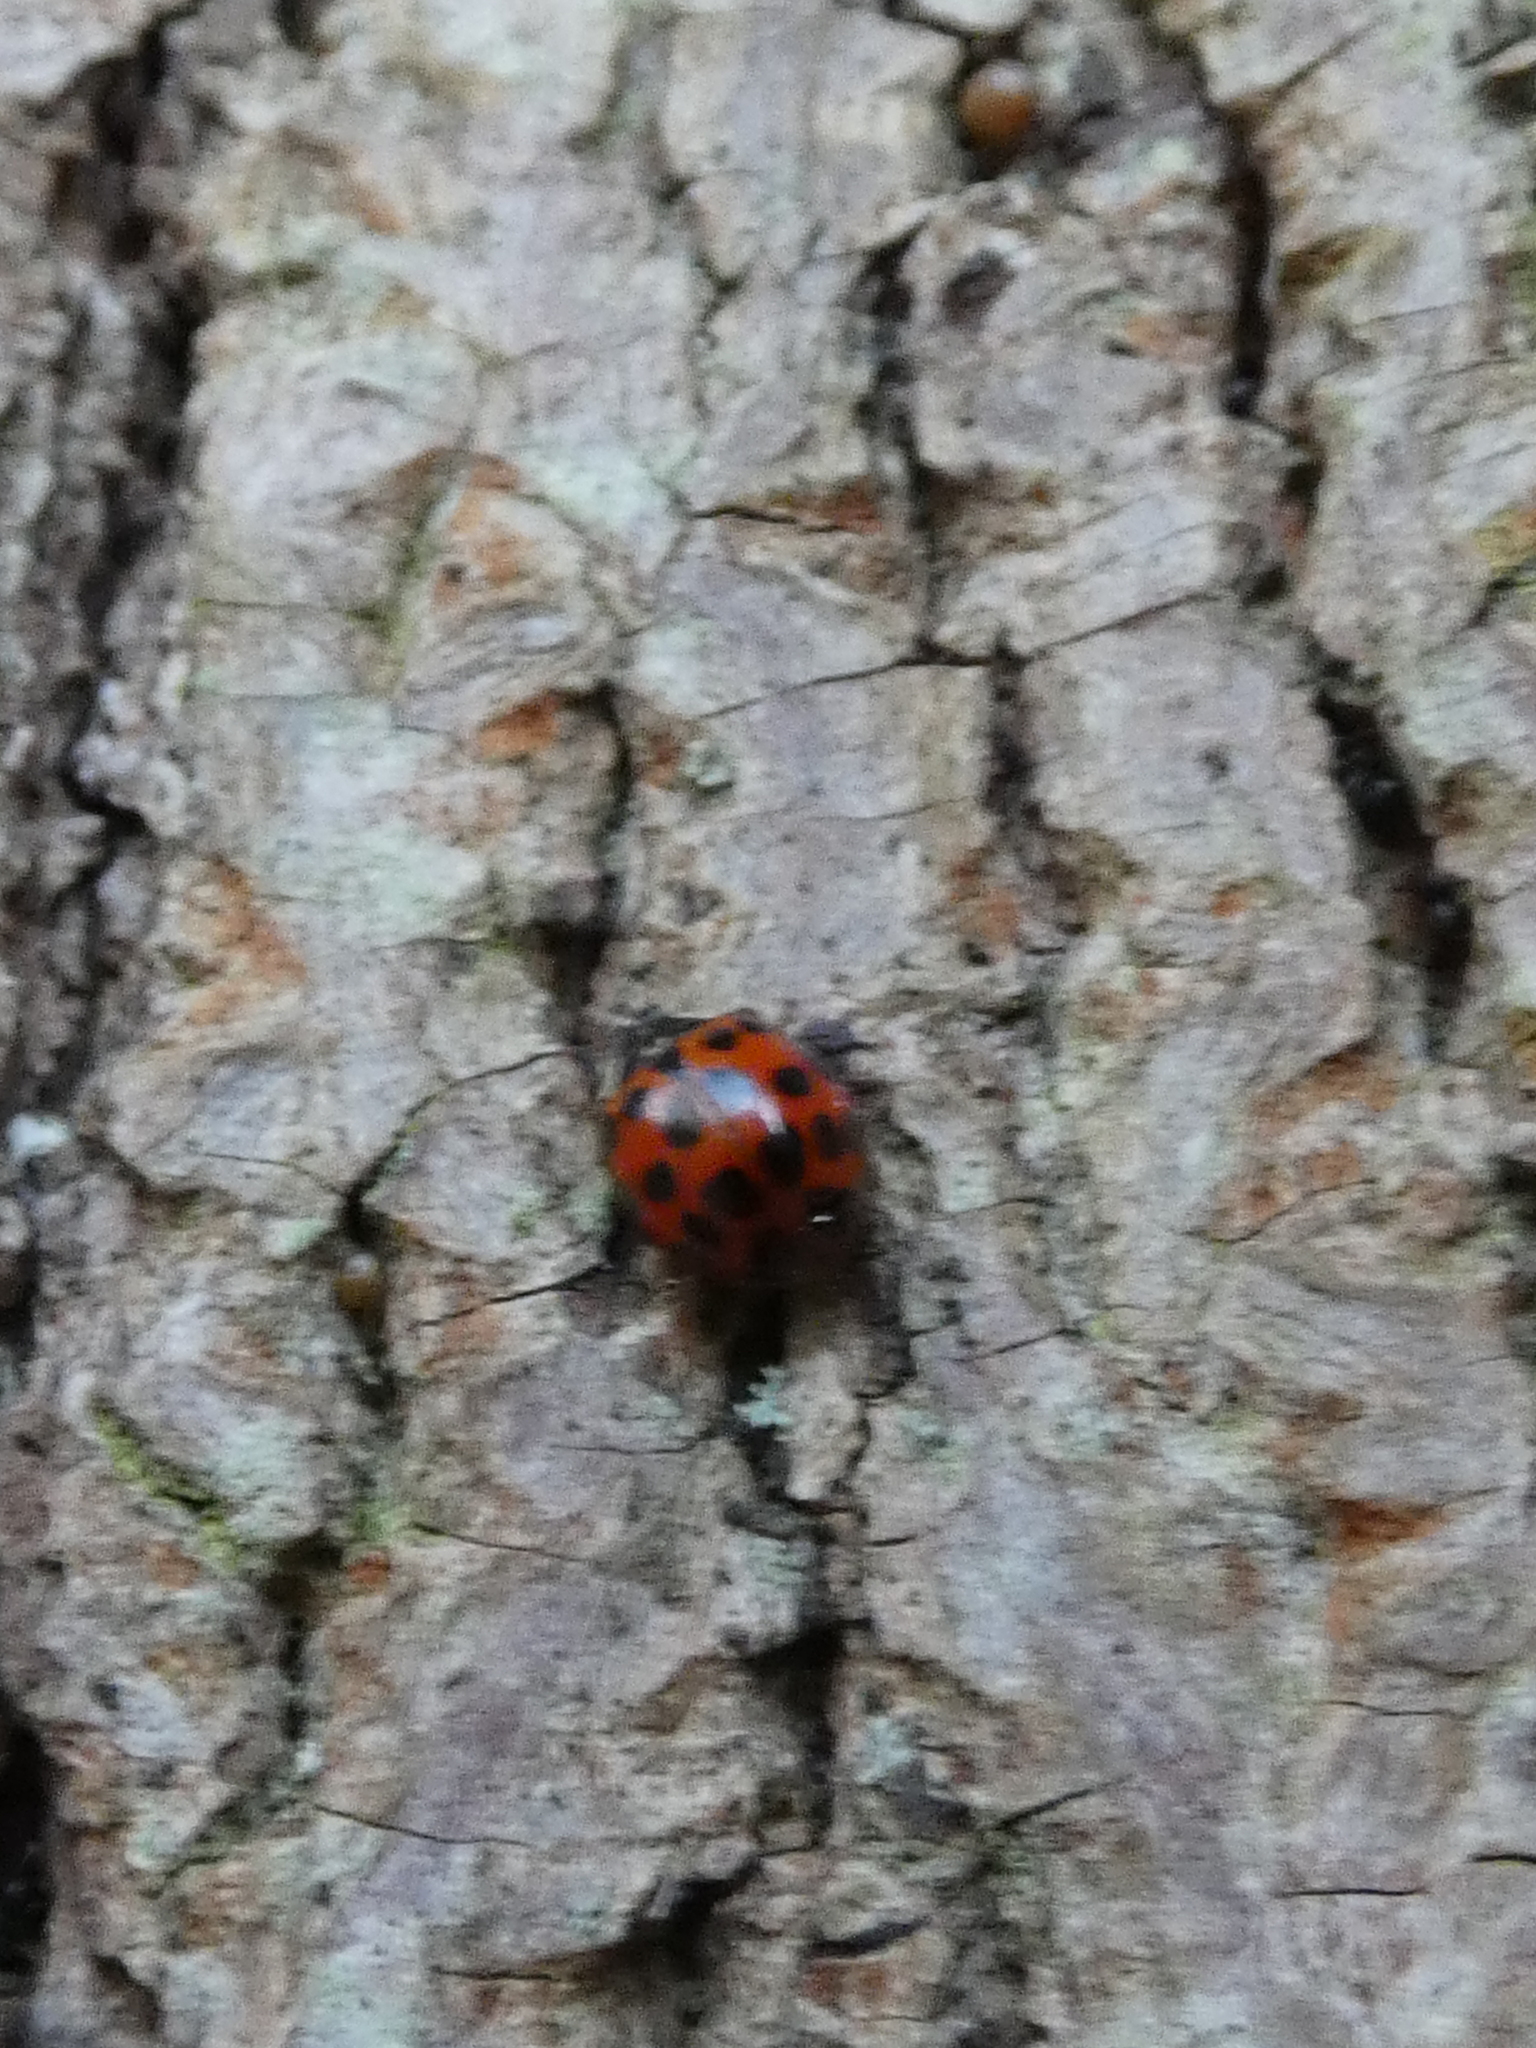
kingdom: Animalia
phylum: Arthropoda
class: Insecta
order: Coleoptera
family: Coccinellidae
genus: Harmonia
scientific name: Harmonia axyridis
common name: Harlequin ladybird
